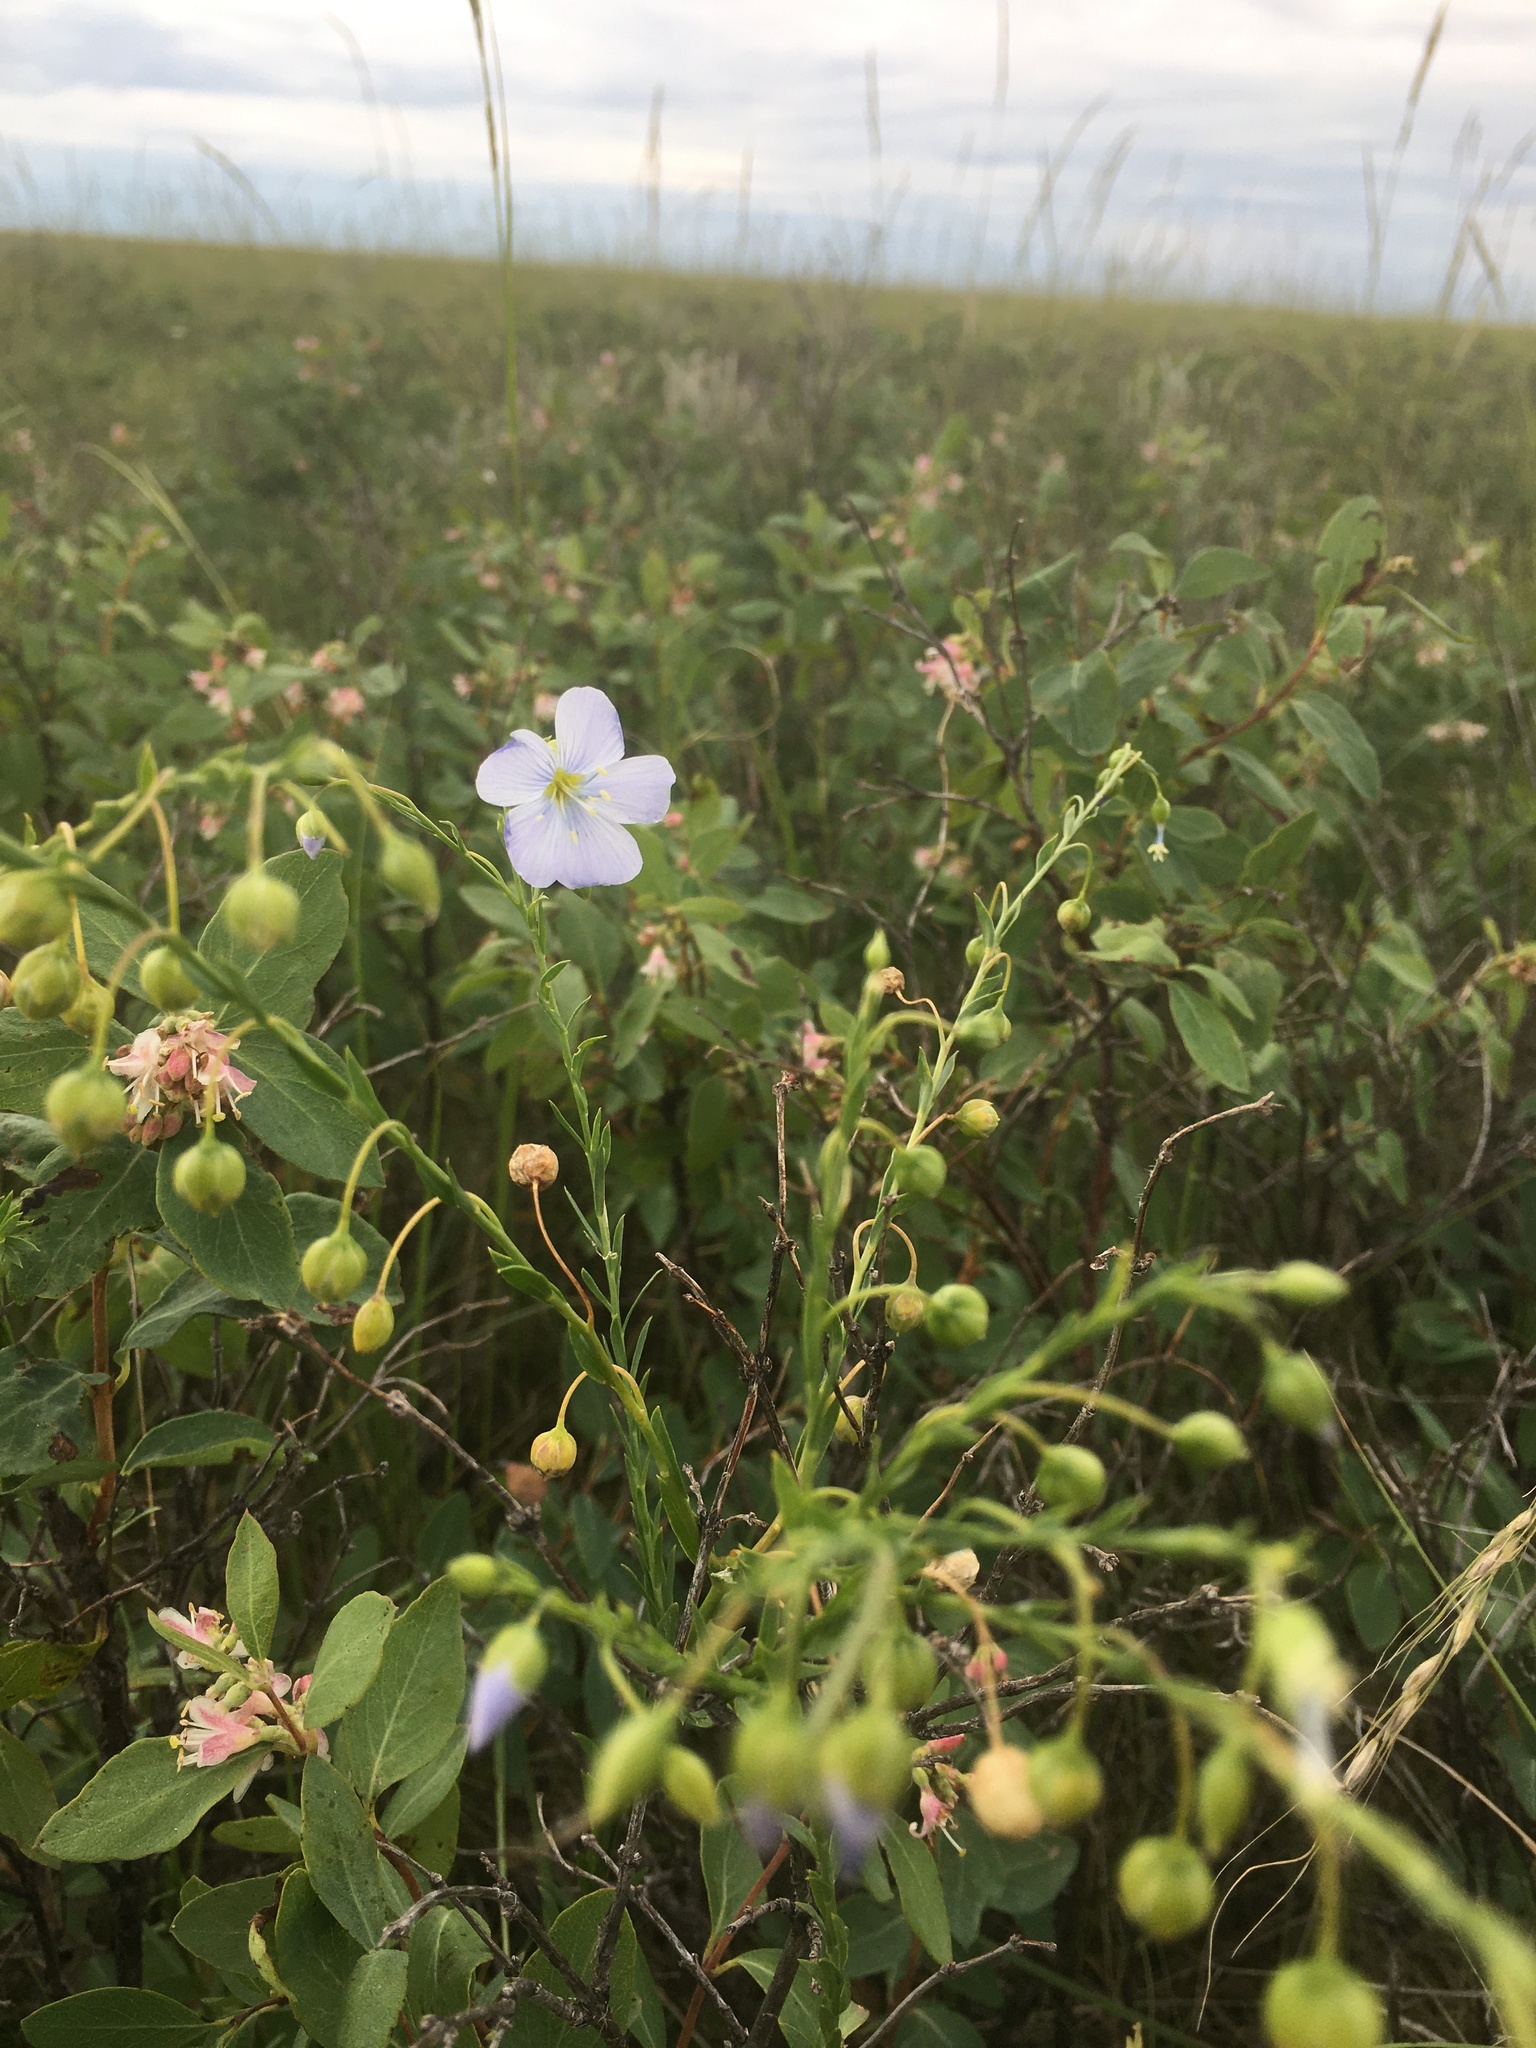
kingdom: Plantae
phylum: Tracheophyta
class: Magnoliopsida
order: Malpighiales
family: Linaceae
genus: Linum
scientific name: Linum lewisii
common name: Prairie flax
